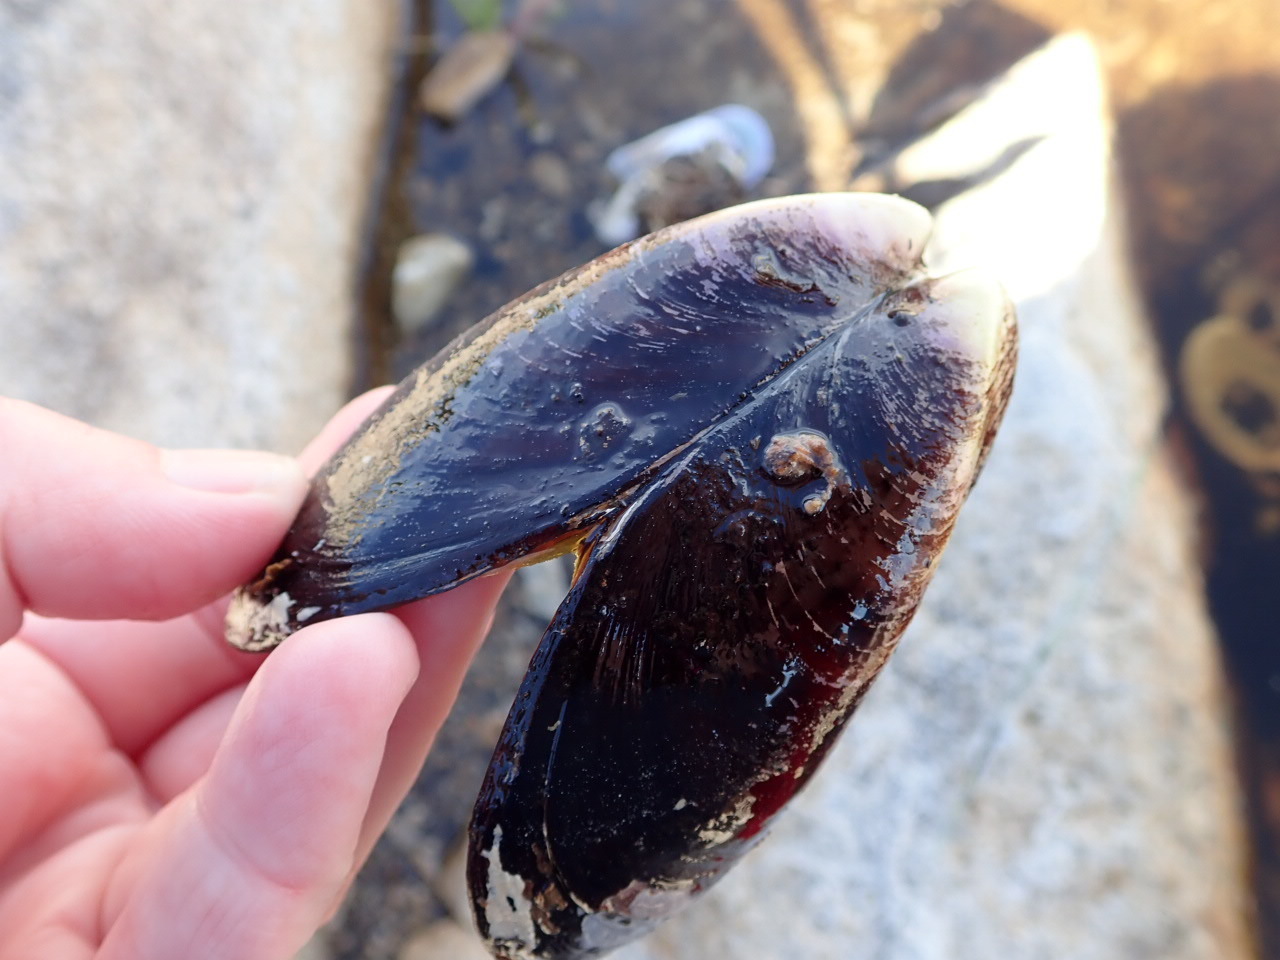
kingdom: Animalia
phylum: Mollusca
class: Bivalvia
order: Mytilida
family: Mytilidae
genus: Mytilus
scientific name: Mytilus edulis
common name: Blue mussel
